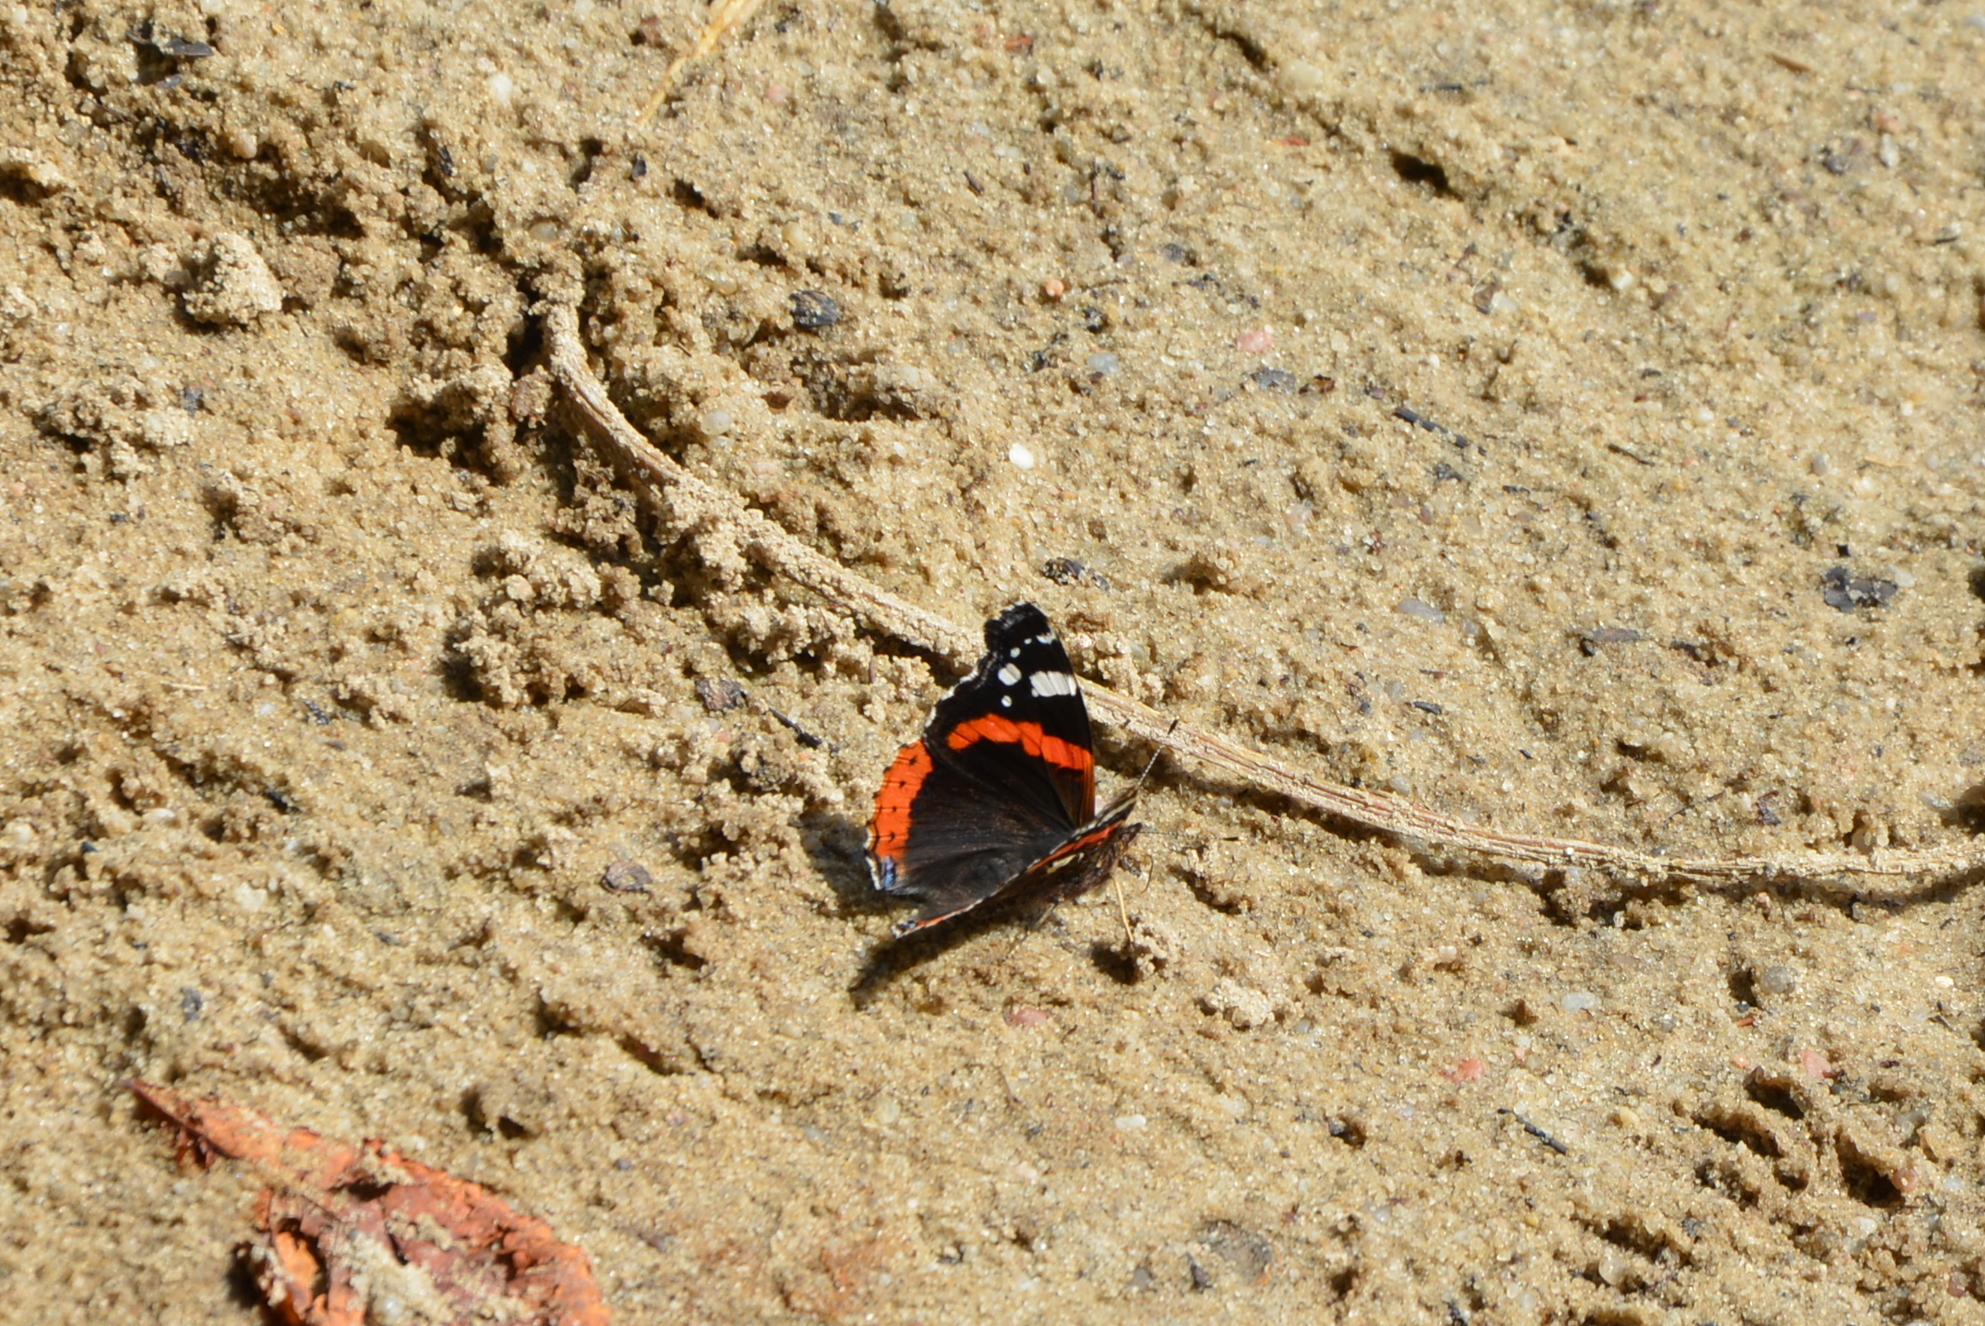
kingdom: Animalia
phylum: Arthropoda
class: Insecta
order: Lepidoptera
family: Nymphalidae
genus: Vanessa
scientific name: Vanessa atalanta
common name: Red admiral
